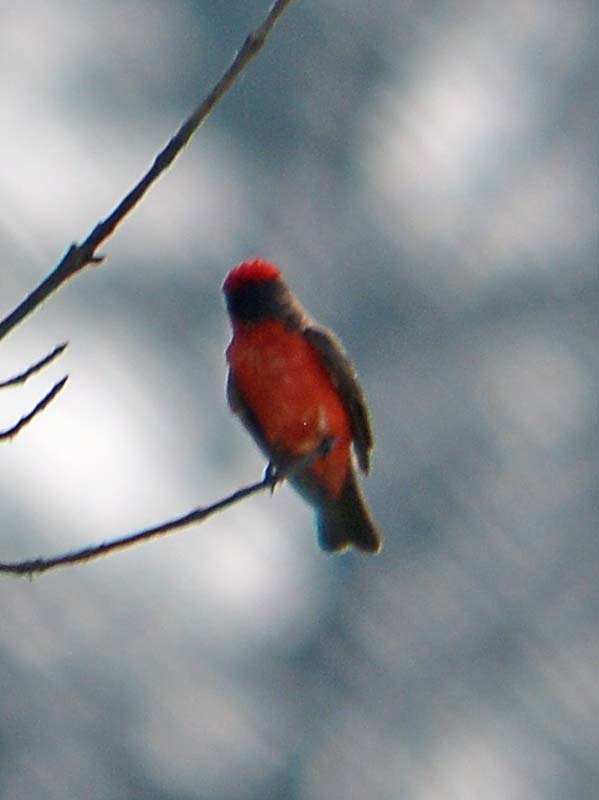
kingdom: Animalia
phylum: Chordata
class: Aves
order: Passeriformes
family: Tyrannidae
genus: Pyrocephalus
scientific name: Pyrocephalus rubinus
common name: Vermilion flycatcher
